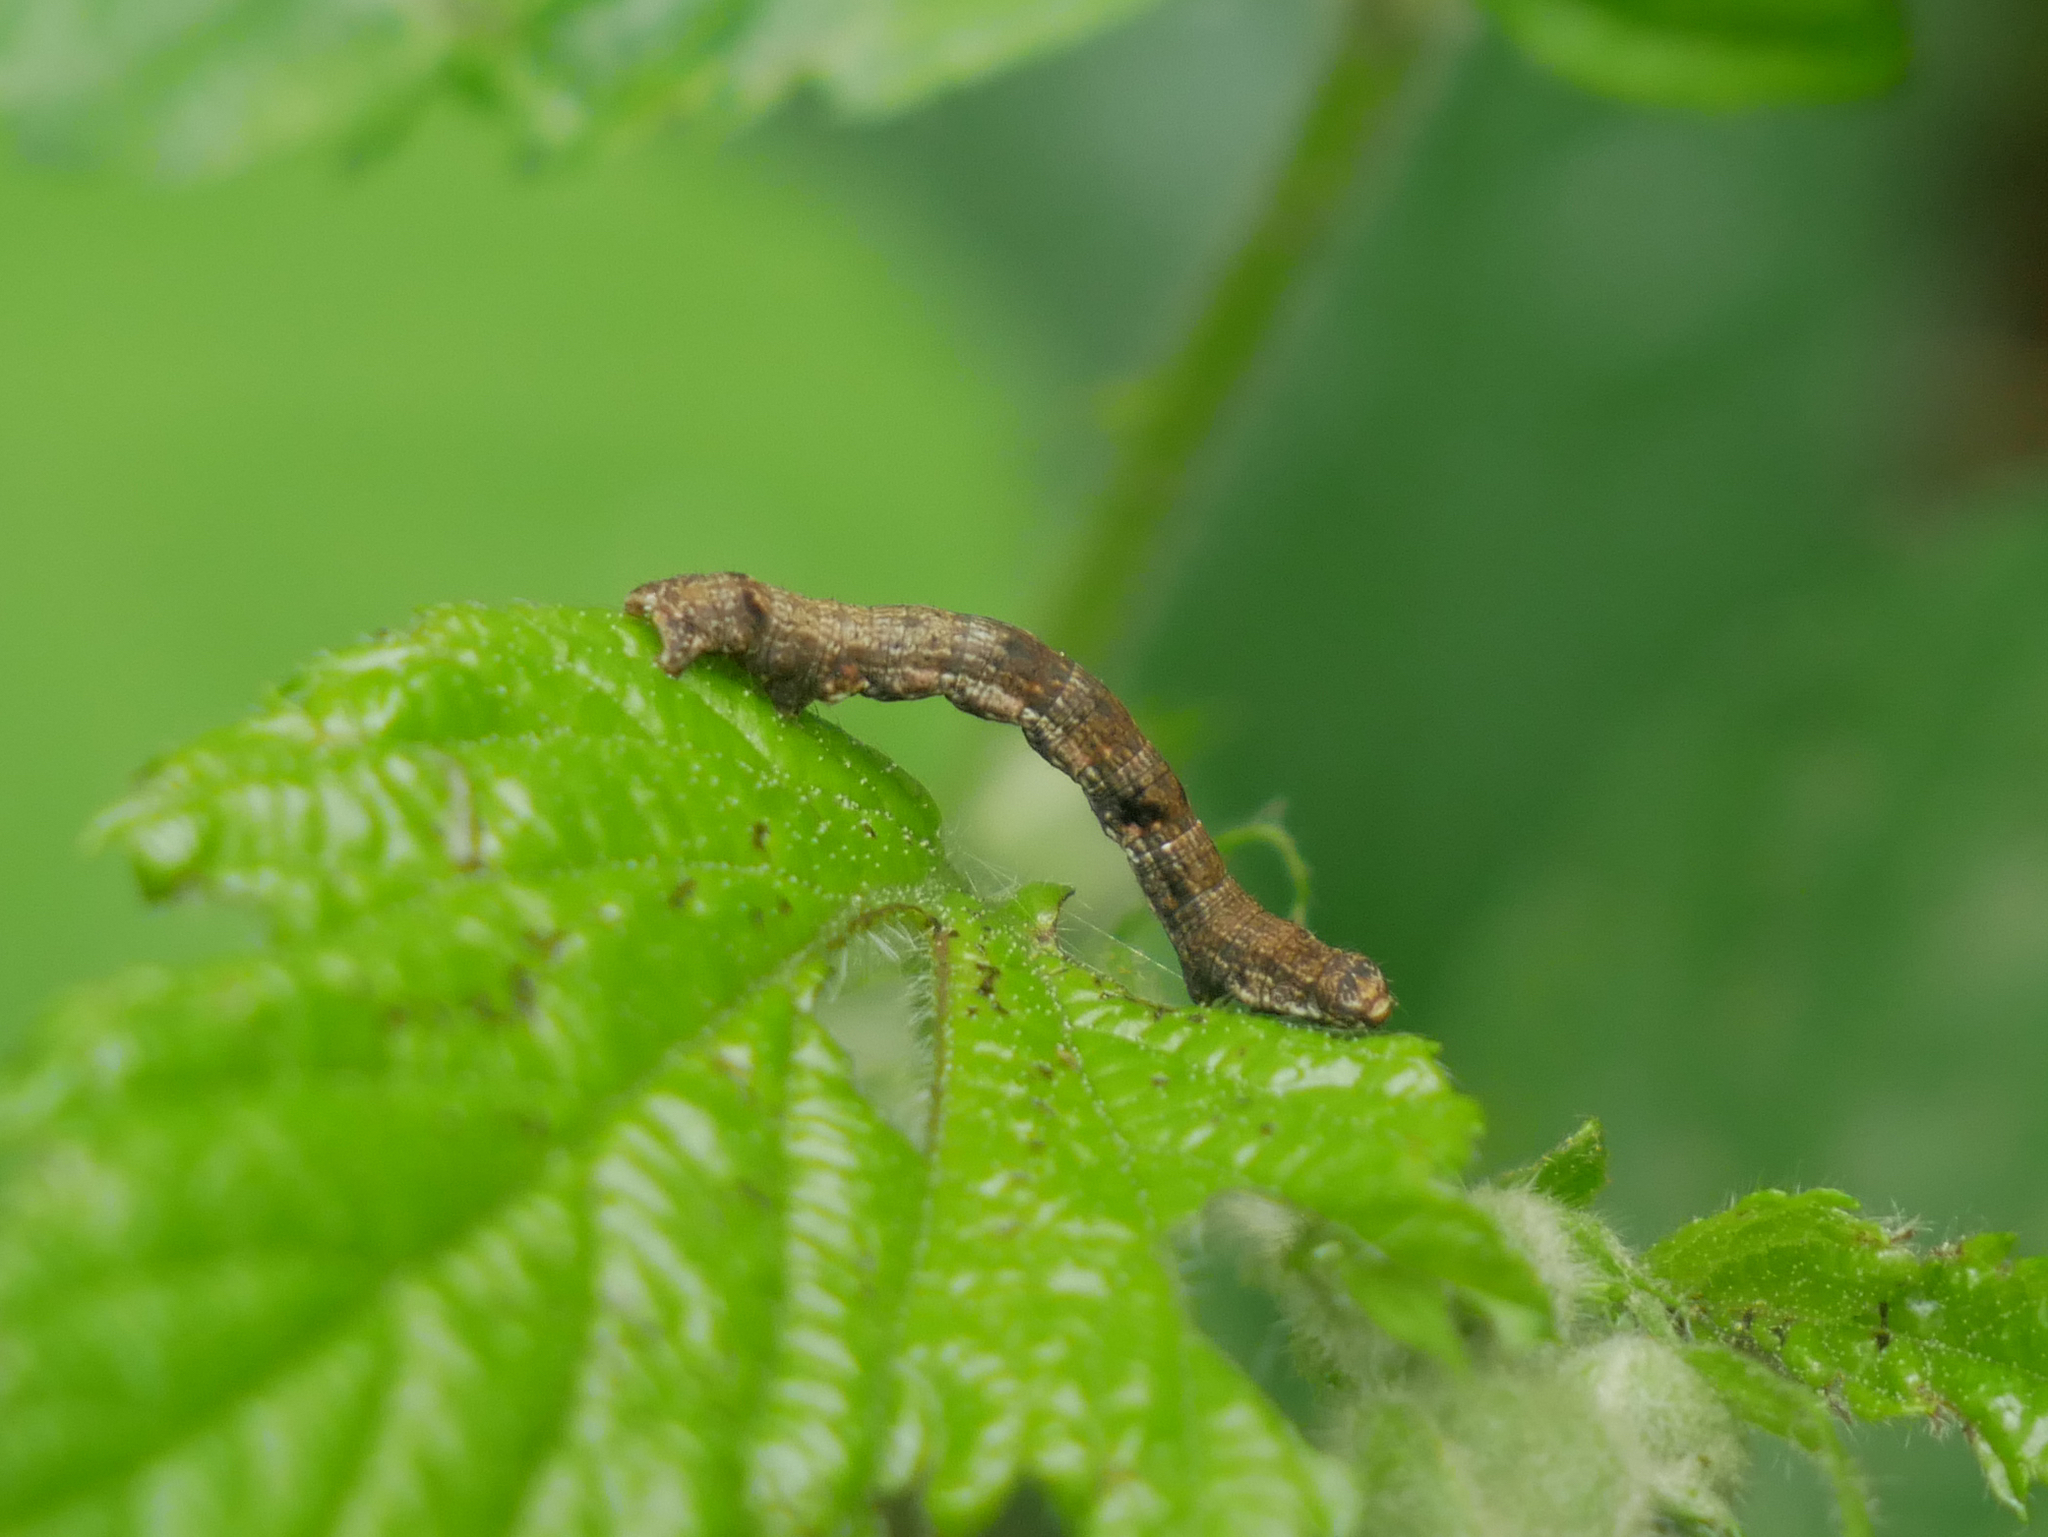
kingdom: Animalia
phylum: Arthropoda
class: Insecta
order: Lepidoptera
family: Geometridae
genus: Ectropis
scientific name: Ectropis crepuscularia
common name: Engrailed
